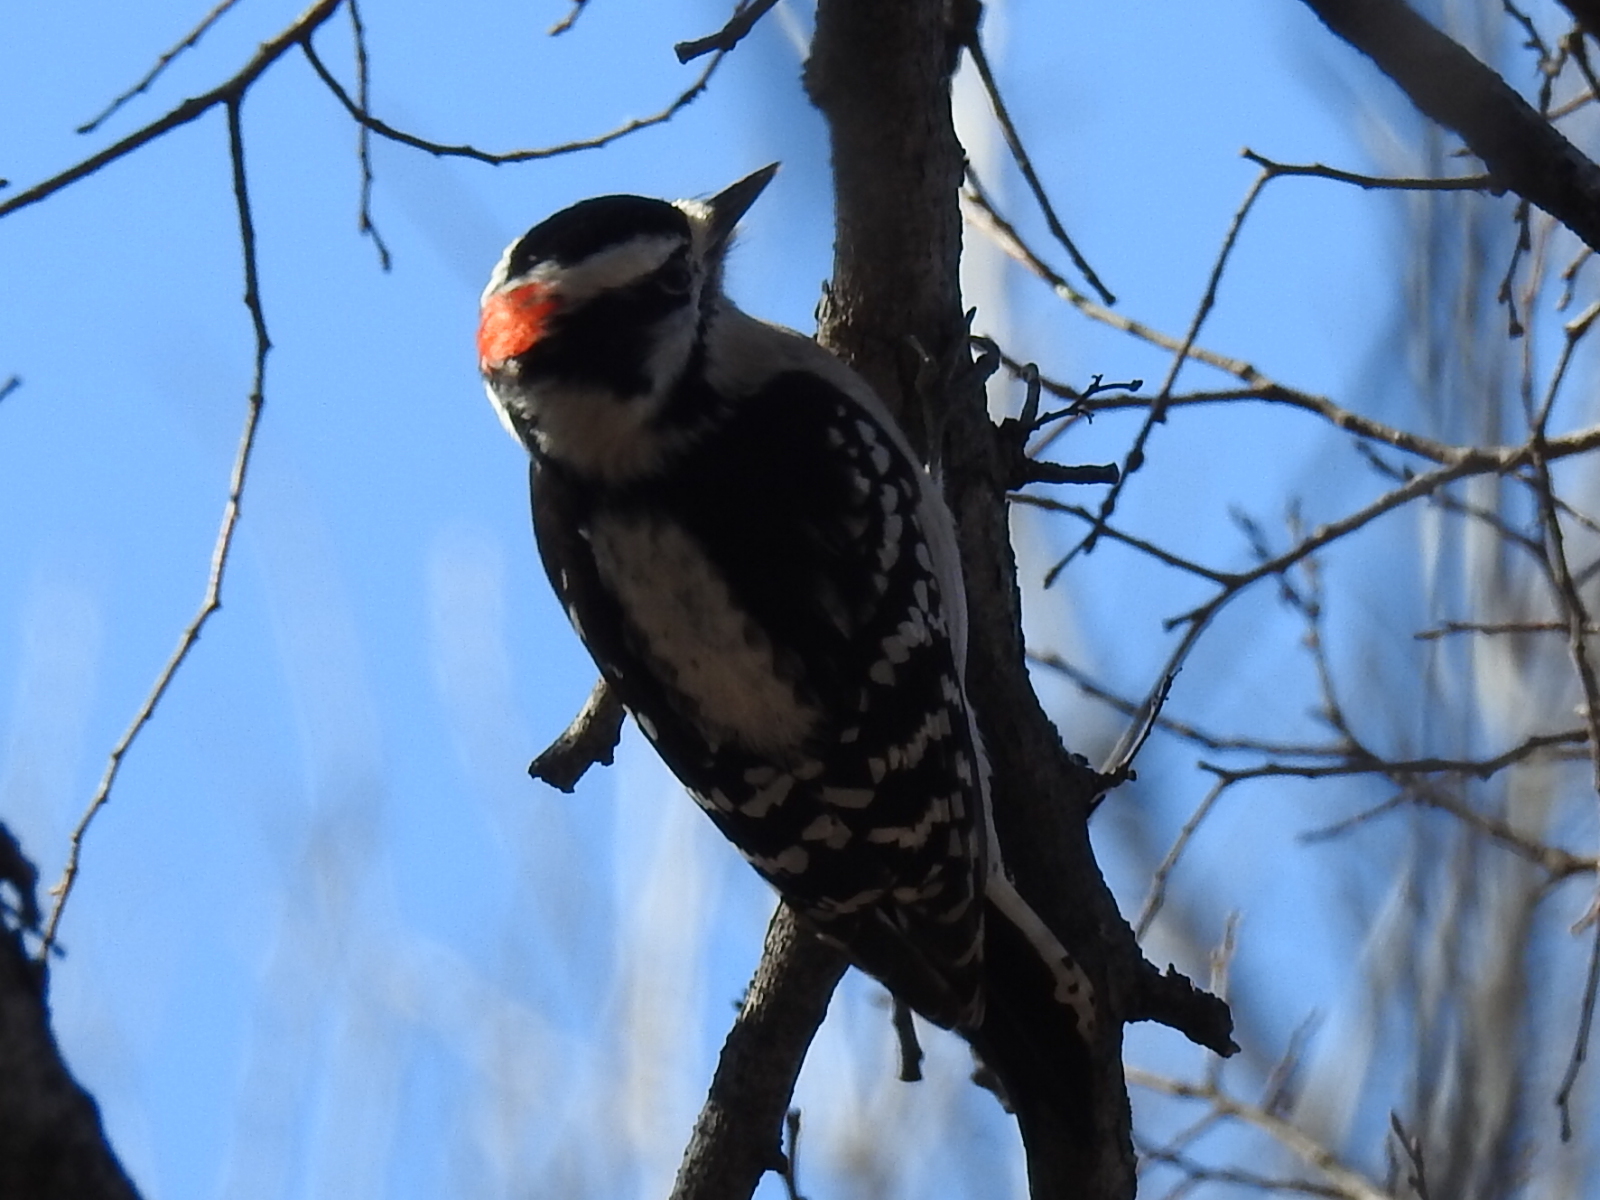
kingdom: Animalia
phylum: Chordata
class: Aves
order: Piciformes
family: Picidae
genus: Dryobates
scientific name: Dryobates pubescens
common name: Downy woodpecker
